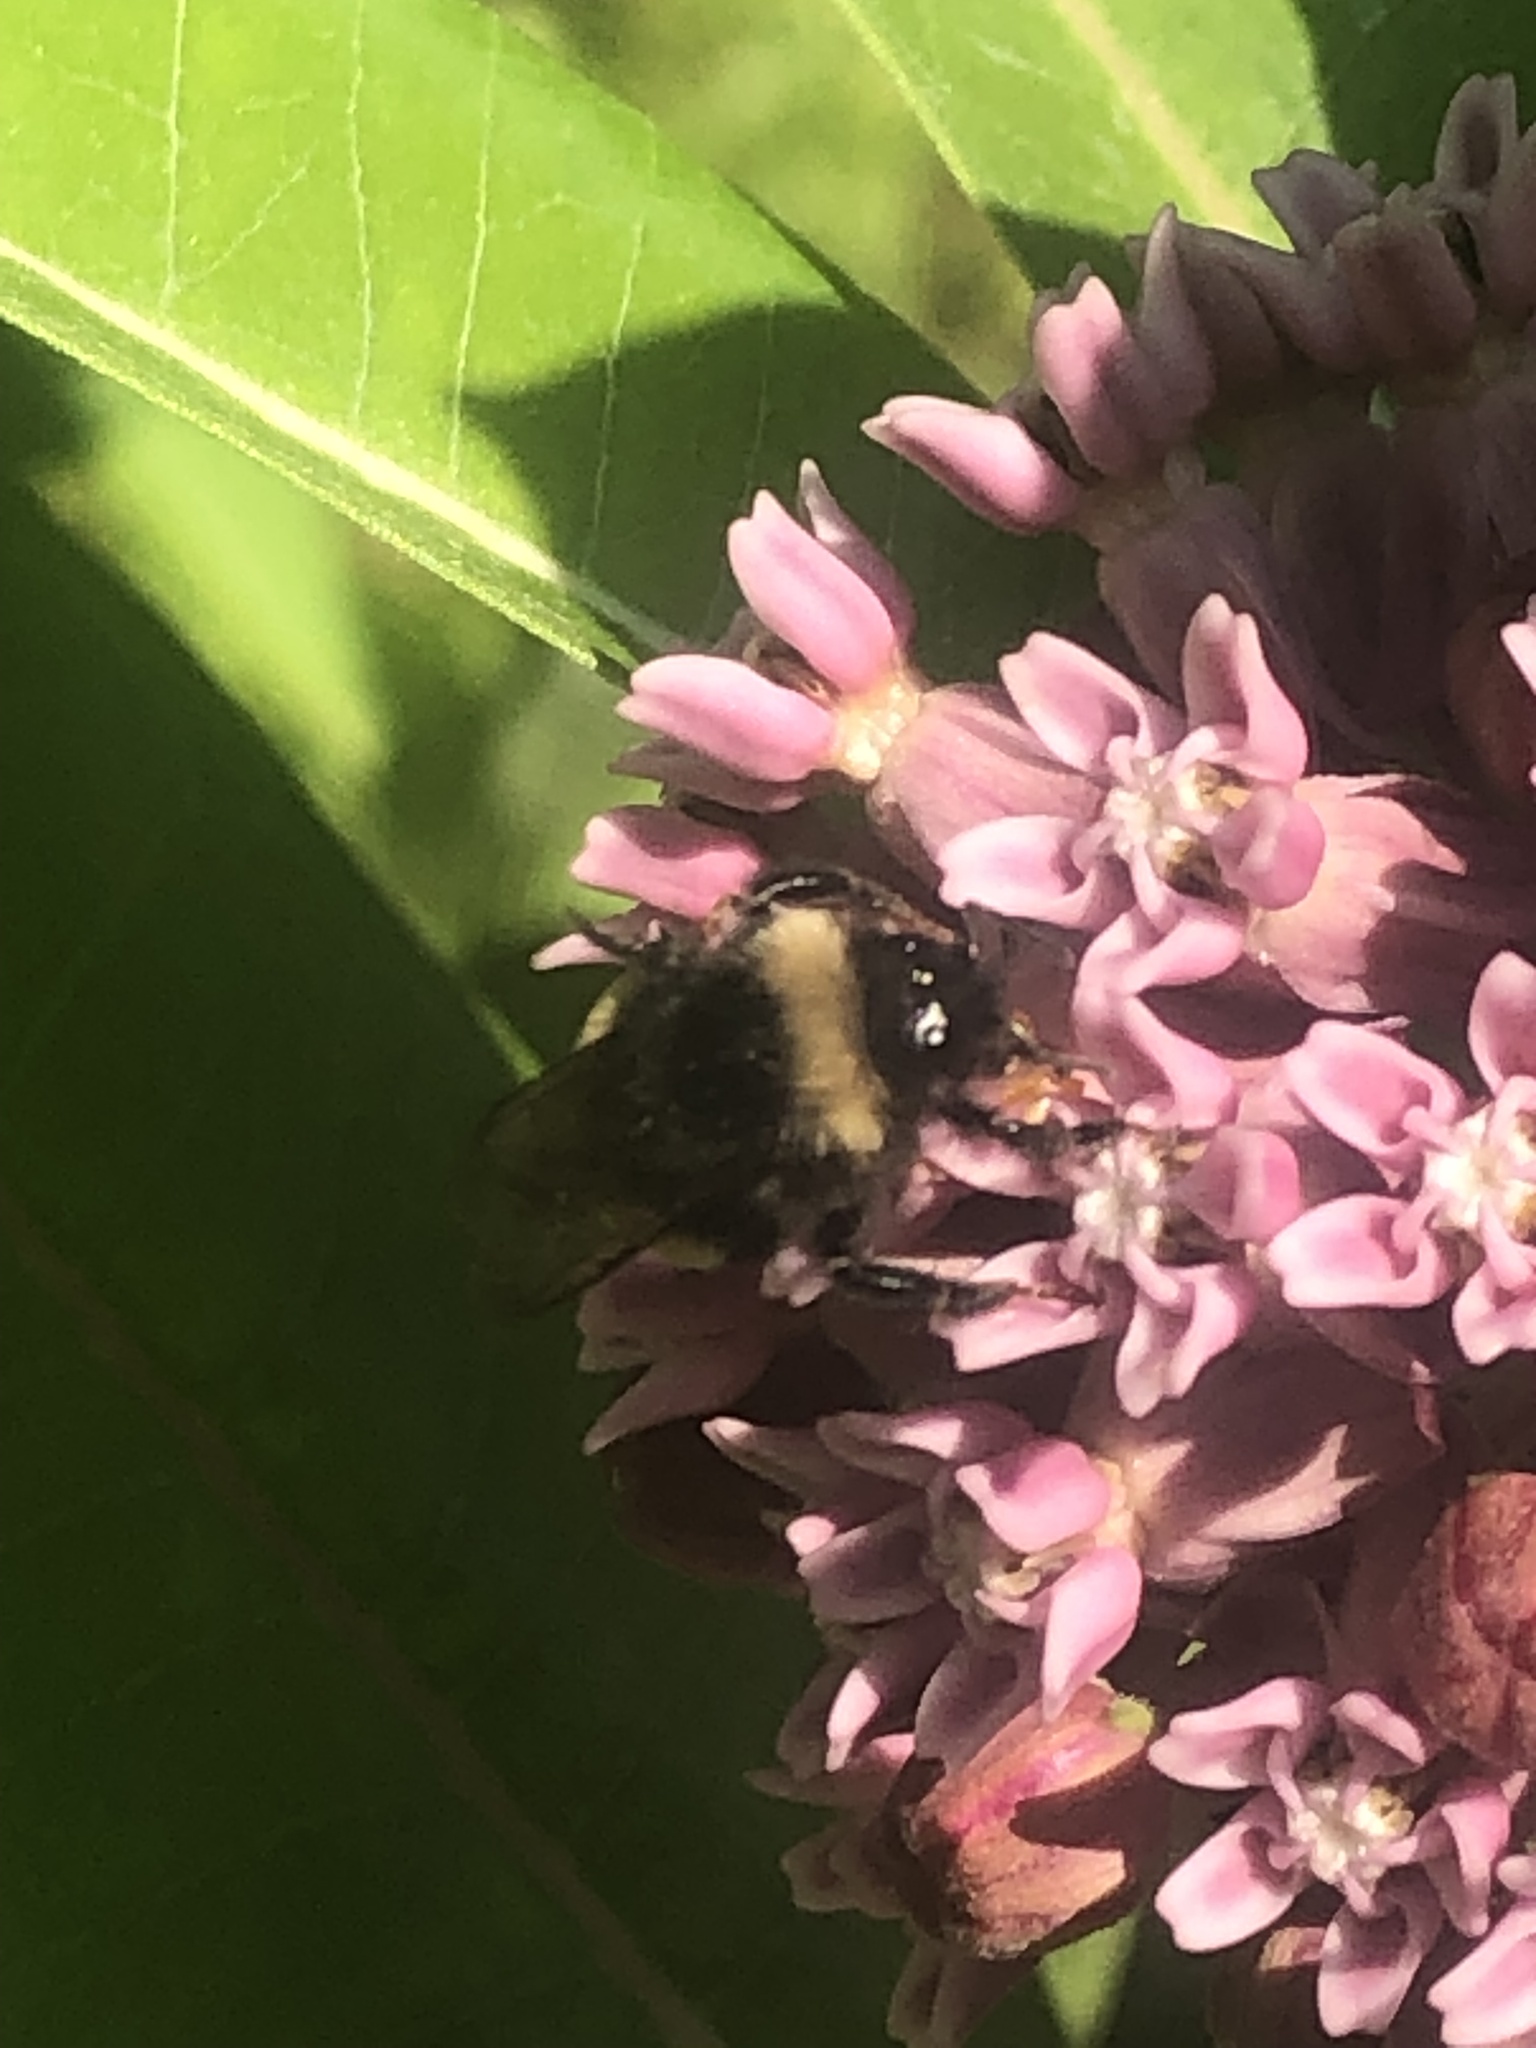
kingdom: Animalia
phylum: Arthropoda
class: Insecta
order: Hymenoptera
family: Apidae
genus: Bombus
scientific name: Bombus terricola
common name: Yellow-banded bumble bee
